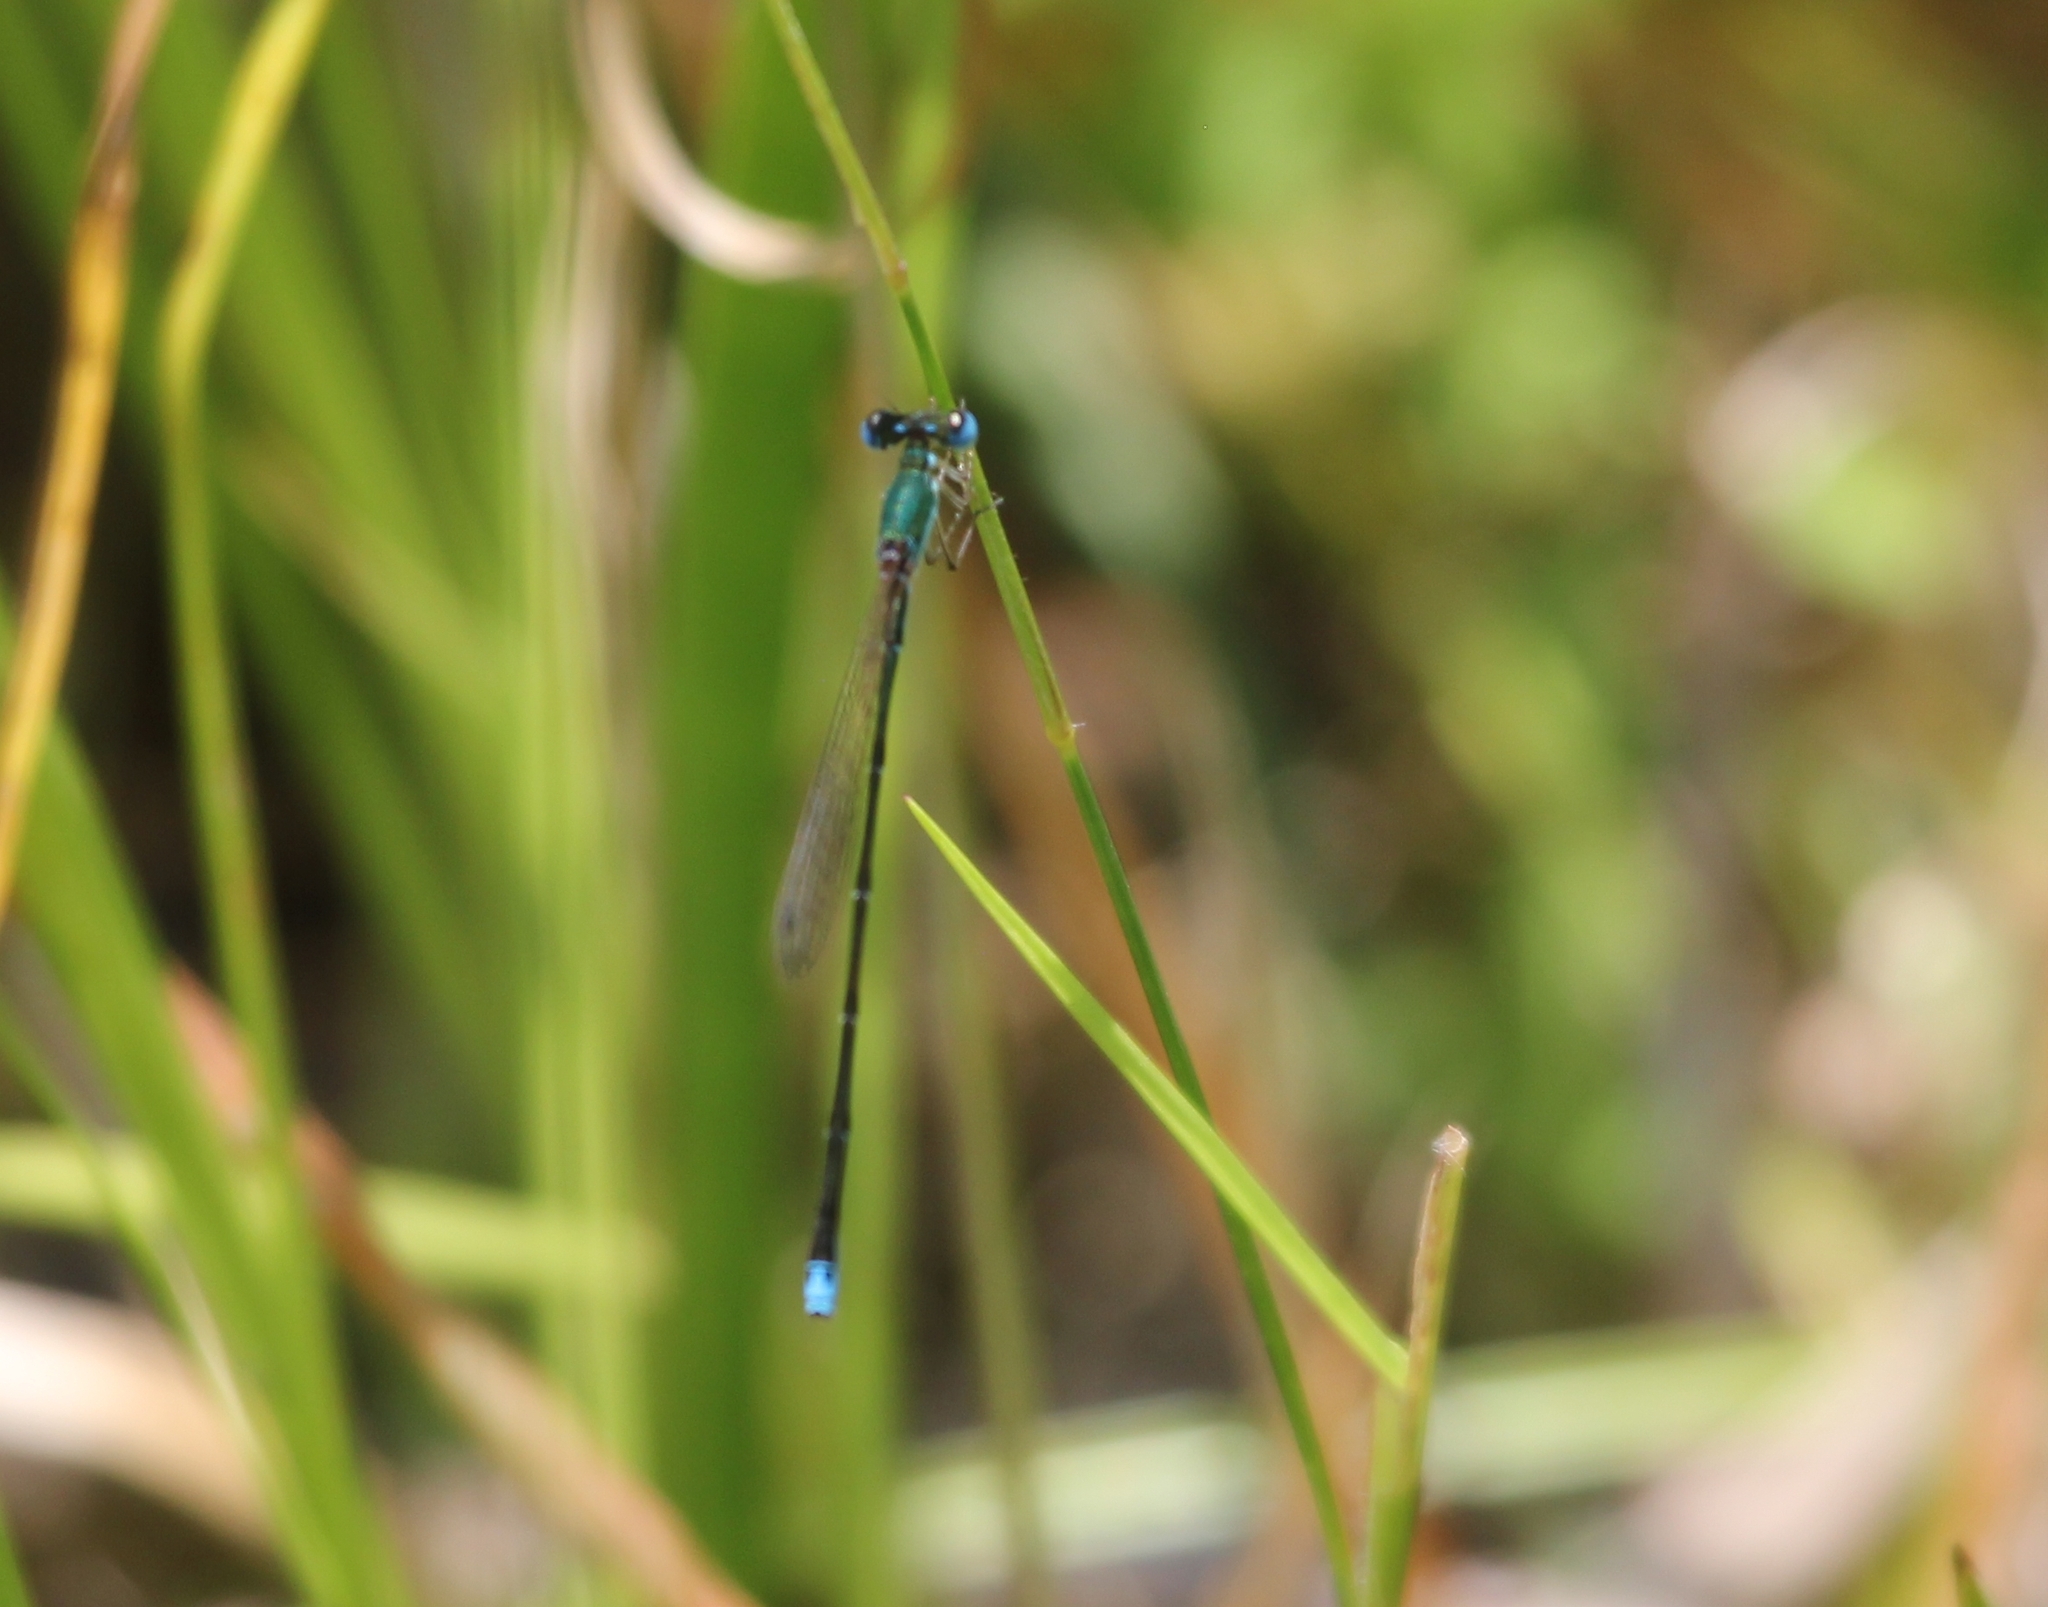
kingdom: Animalia
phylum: Arthropoda
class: Insecta
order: Odonata
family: Coenagrionidae
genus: Nehalennia
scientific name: Nehalennia integricollis
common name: Southern sprite
